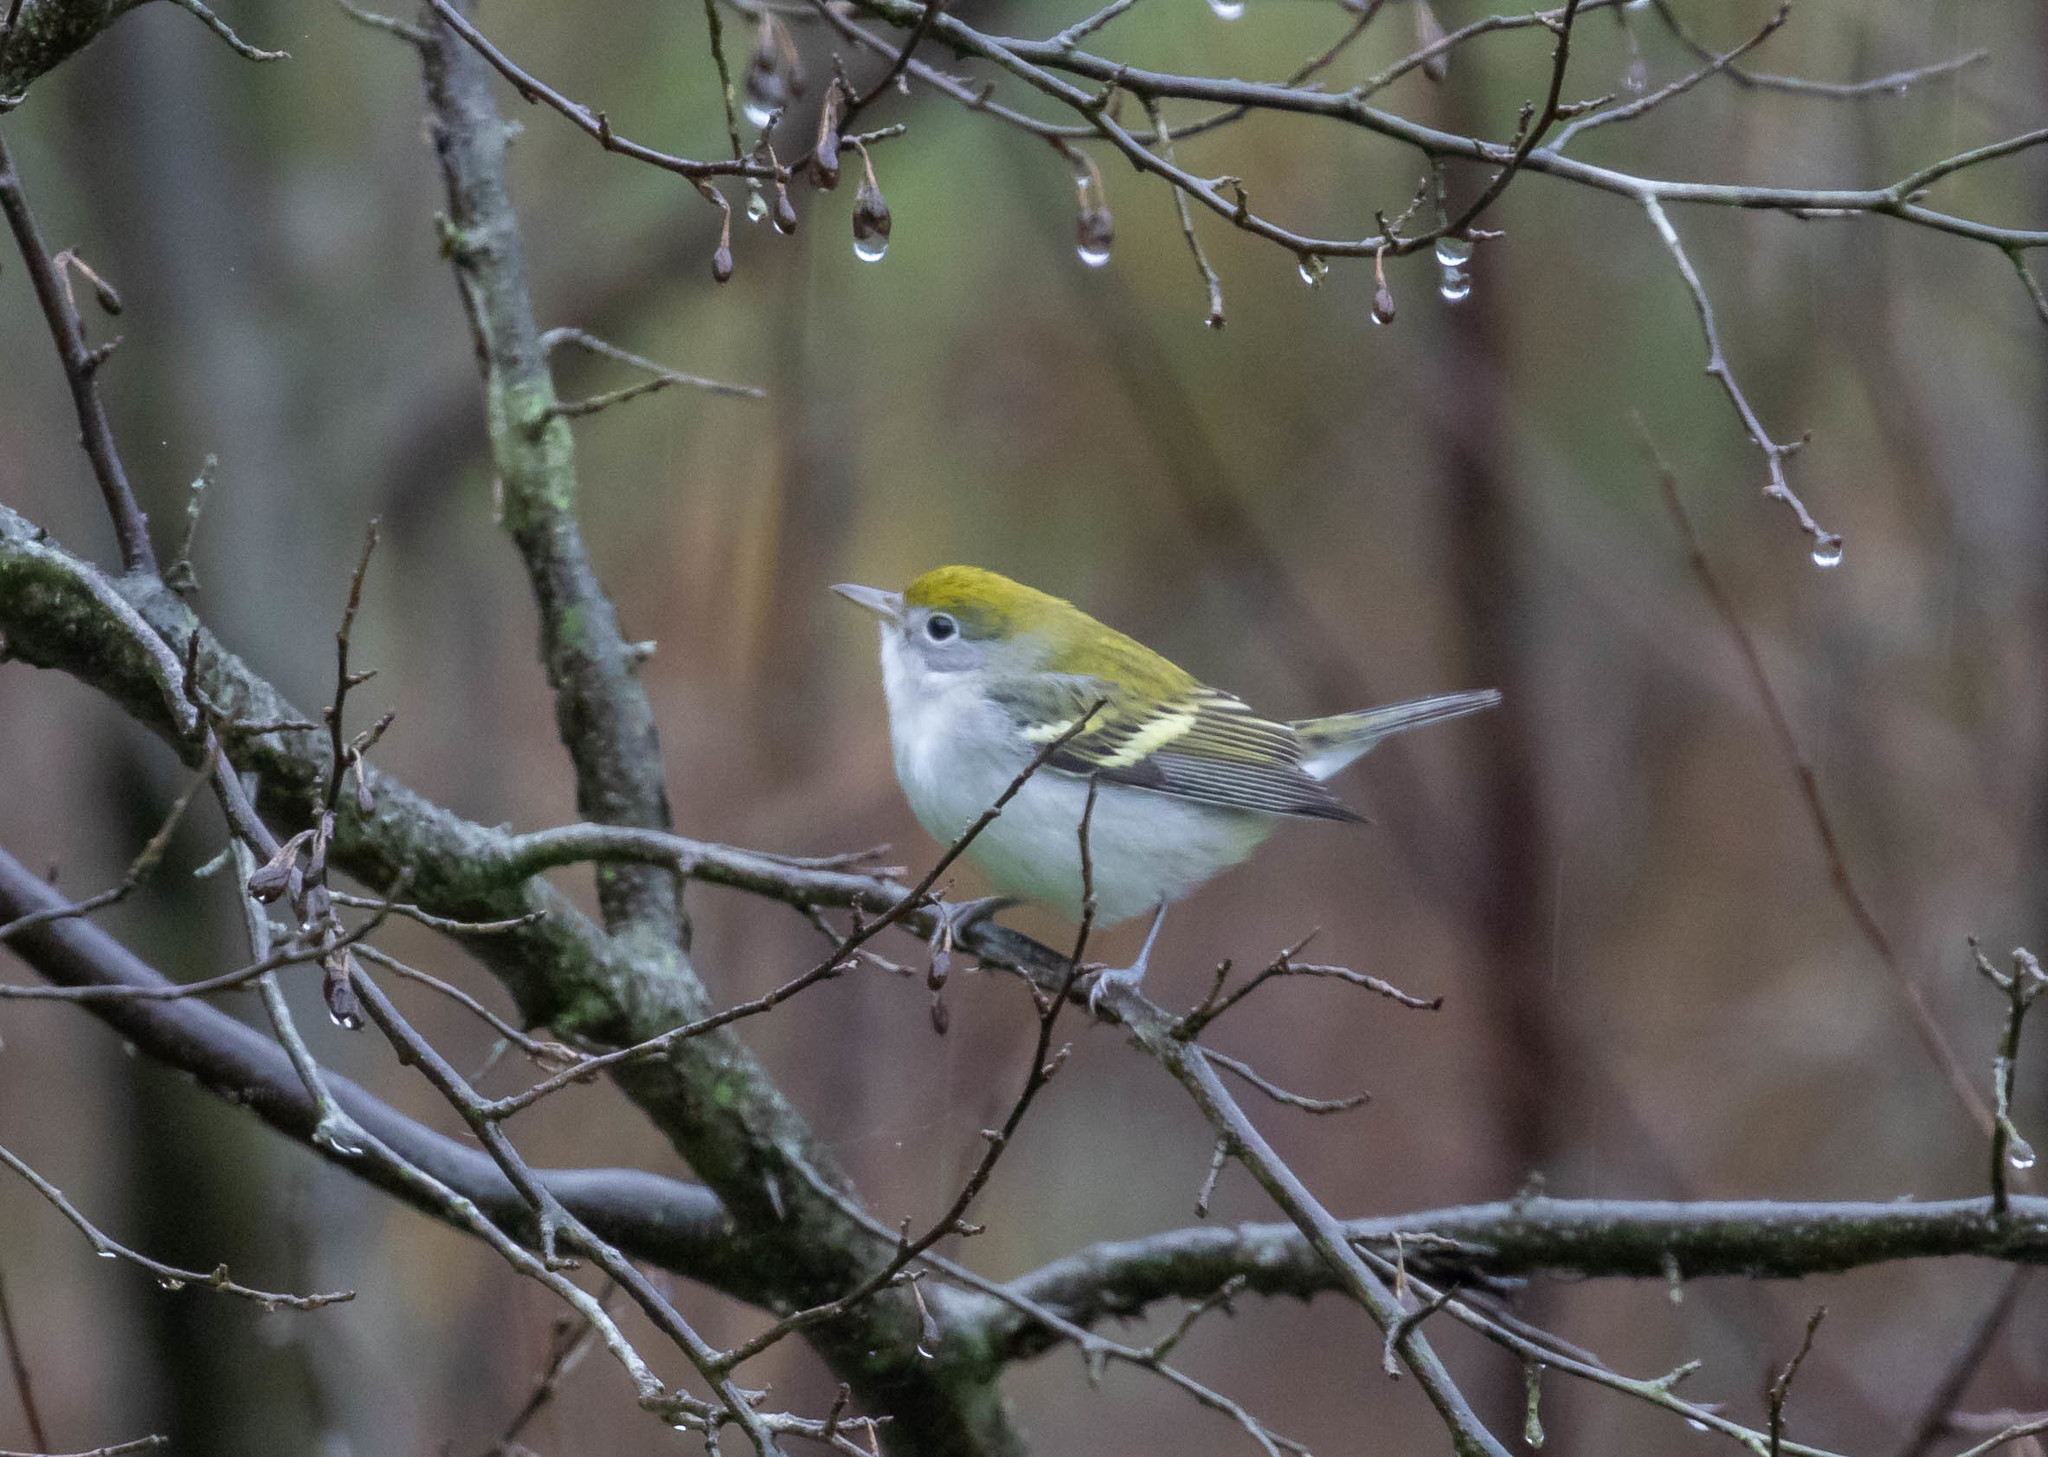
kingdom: Animalia
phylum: Chordata
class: Aves
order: Passeriformes
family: Parulidae
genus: Setophaga
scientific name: Setophaga pensylvanica
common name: Chestnut-sided warbler
